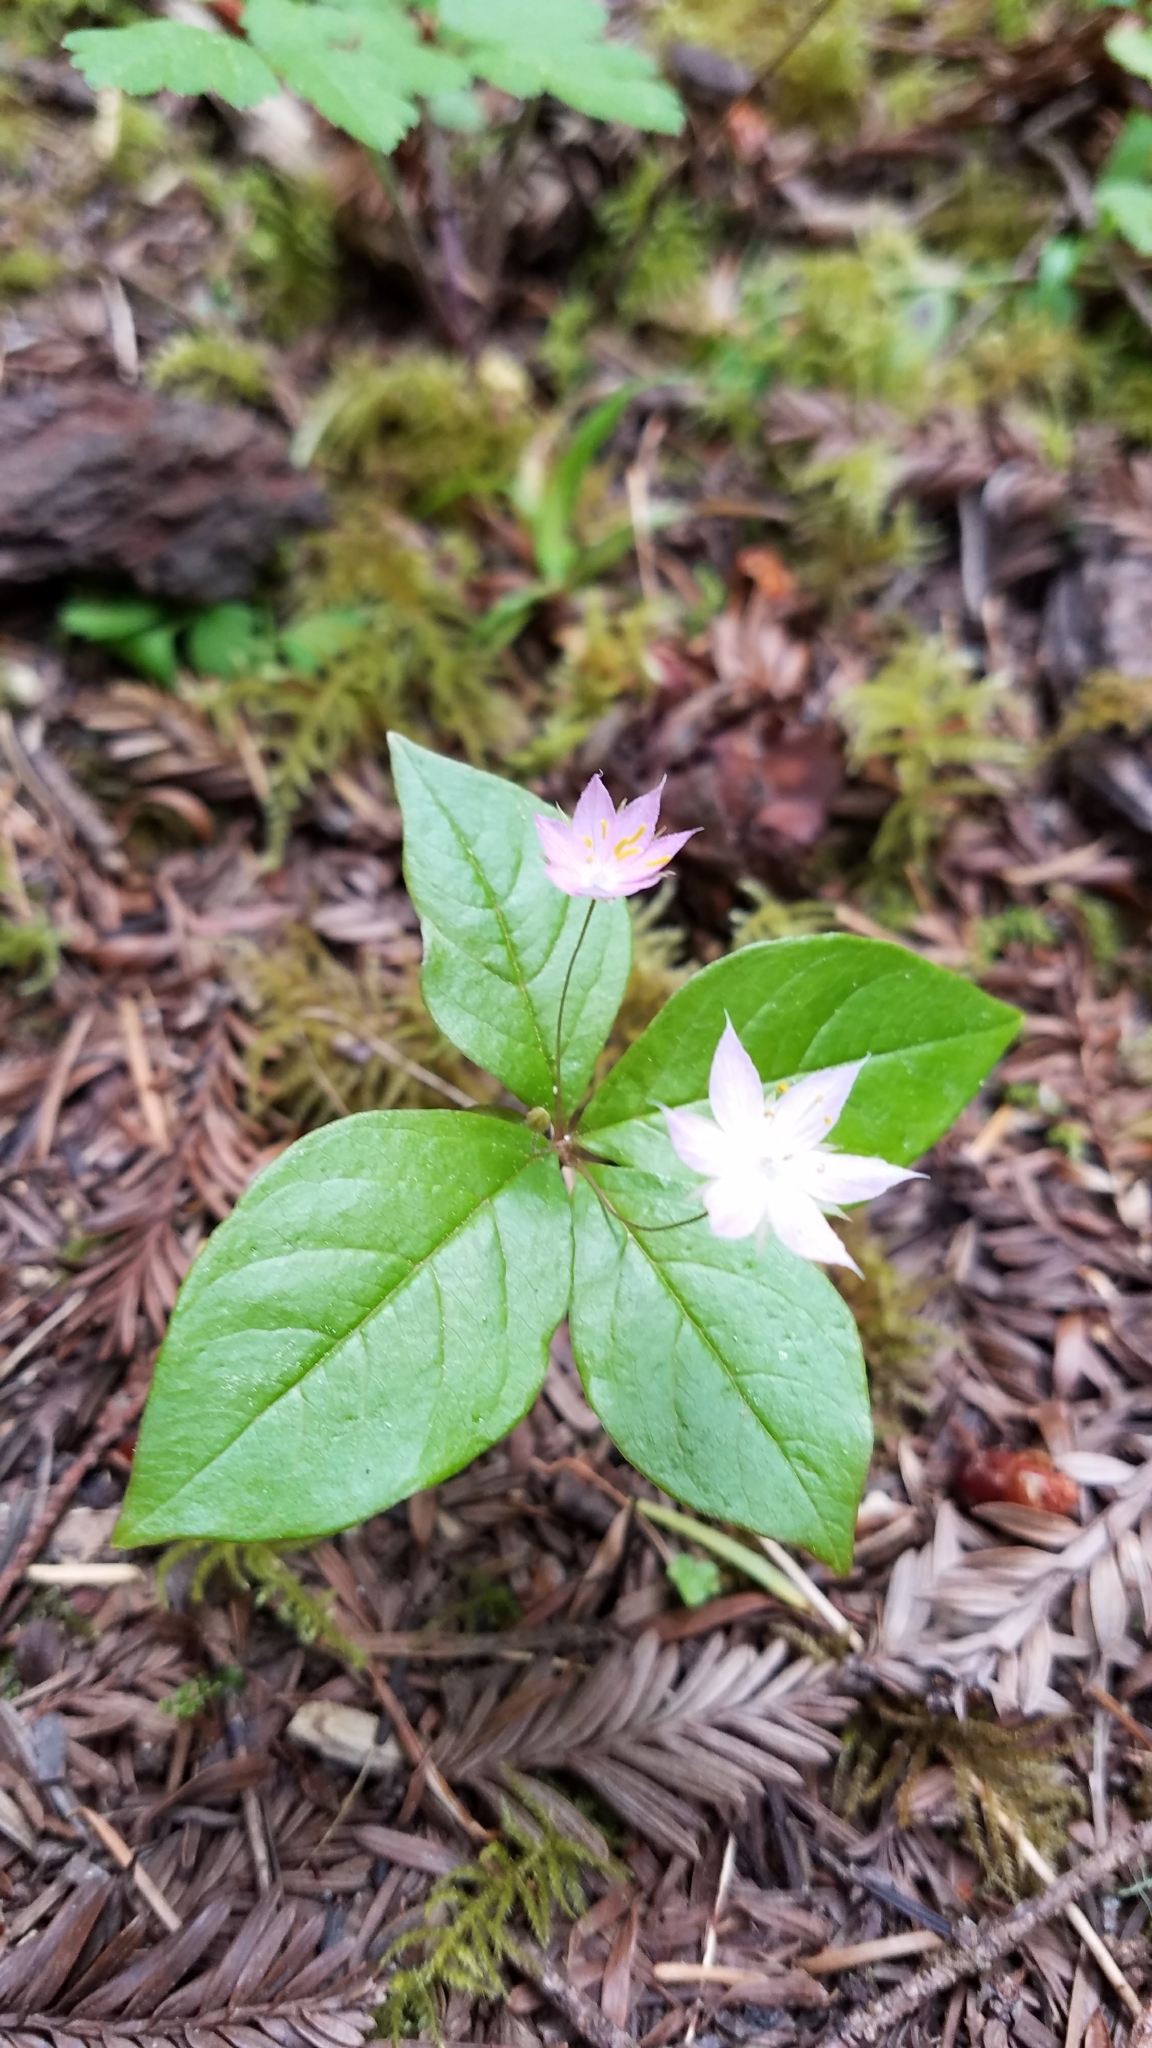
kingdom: Plantae
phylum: Tracheophyta
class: Magnoliopsida
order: Ericales
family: Primulaceae
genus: Lysimachia
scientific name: Lysimachia latifolia
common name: Pacific starflower
